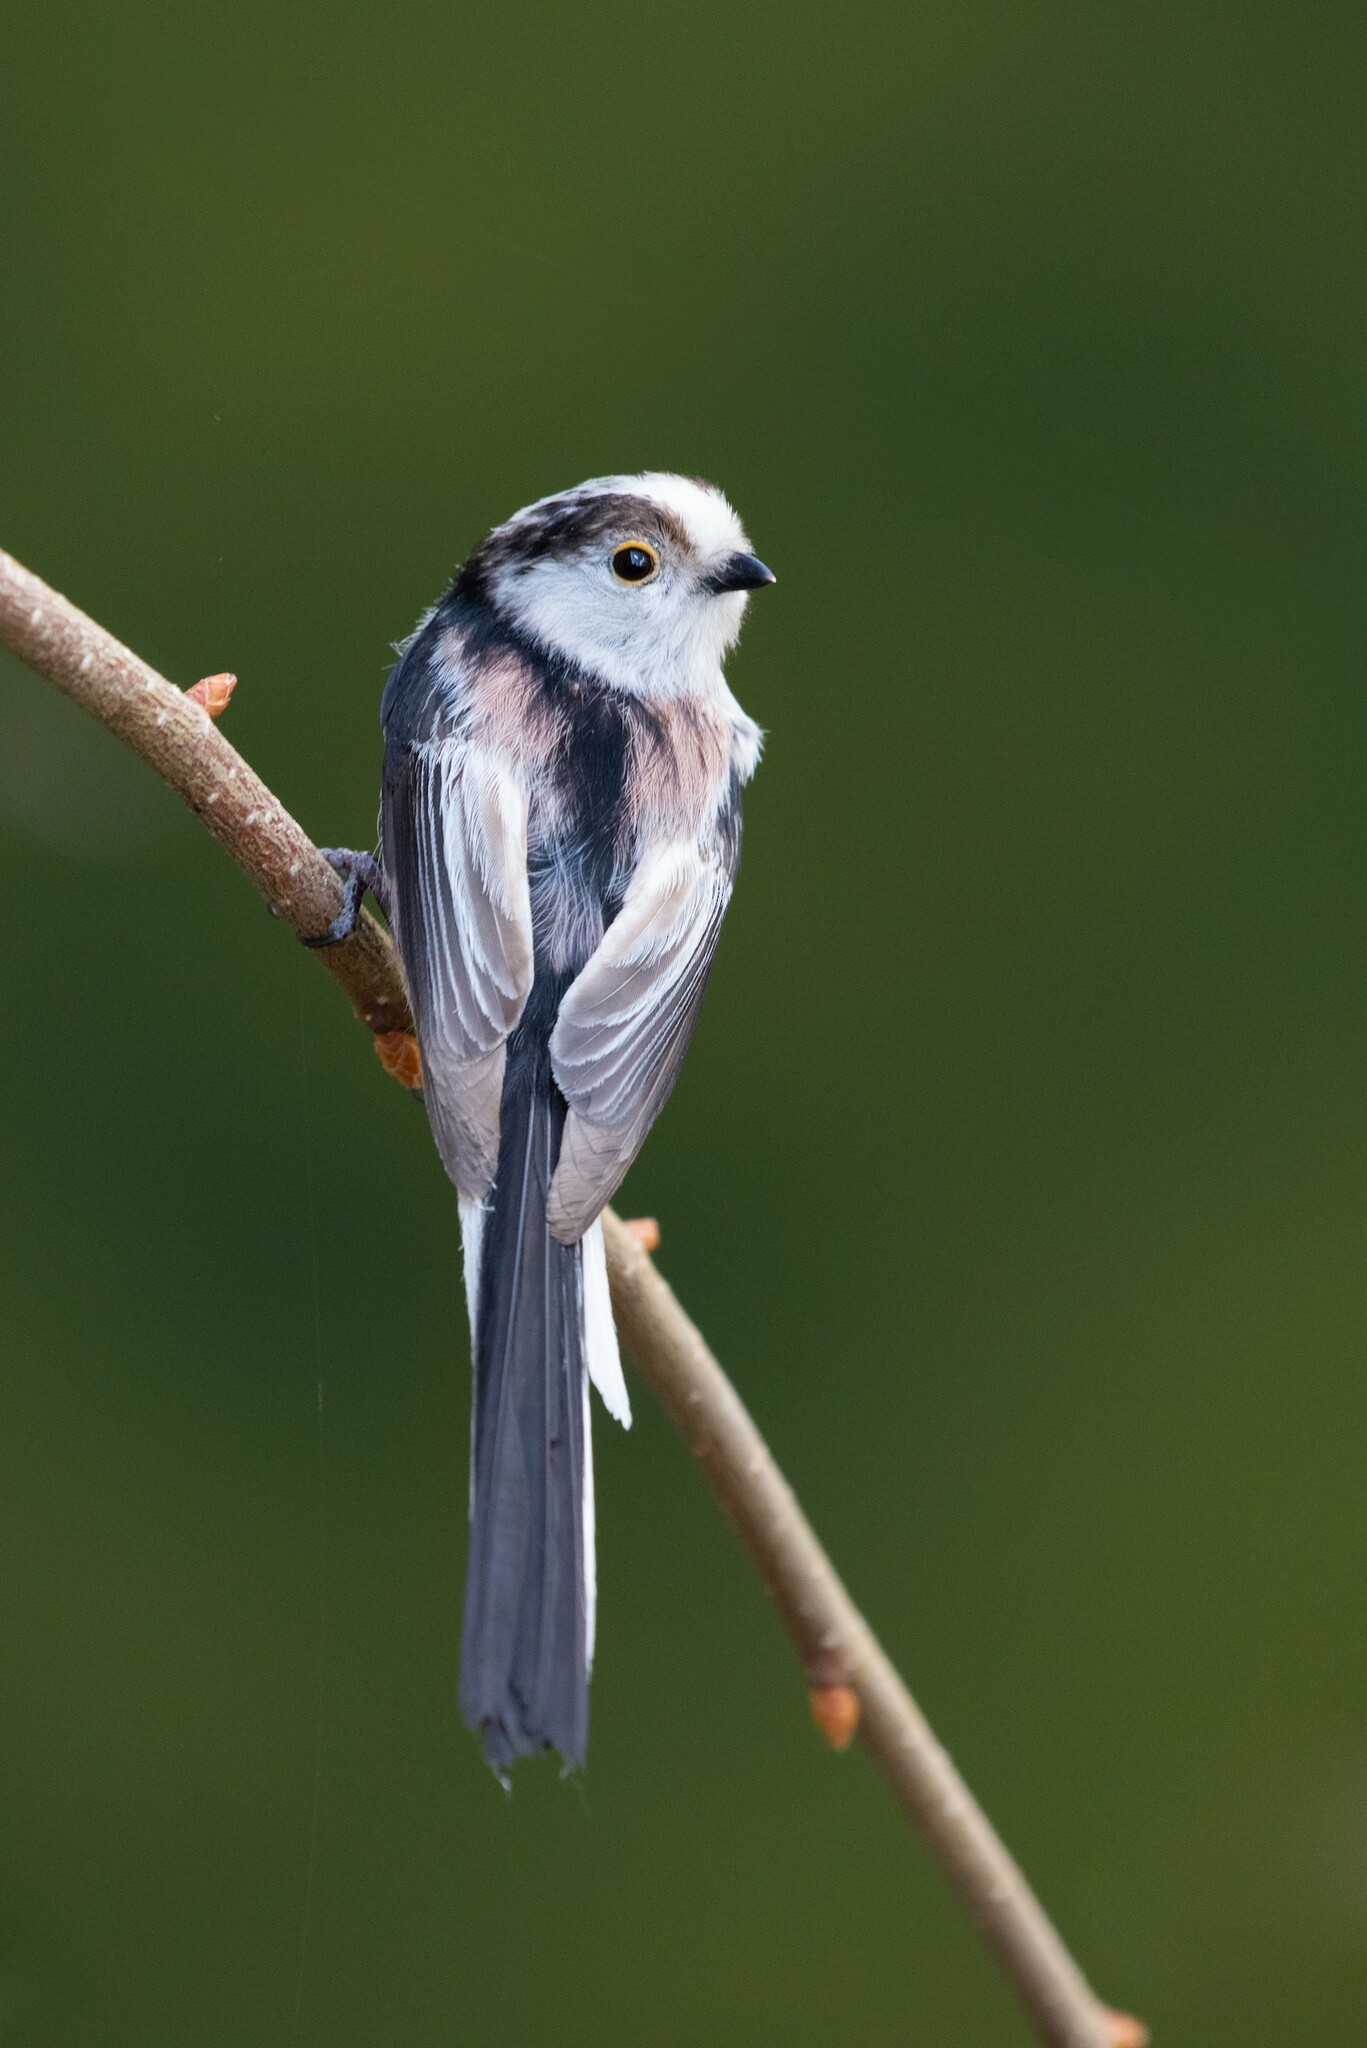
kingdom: Animalia
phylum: Chordata
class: Aves
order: Passeriformes
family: Aegithalidae
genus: Aegithalos
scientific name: Aegithalos caudatus
